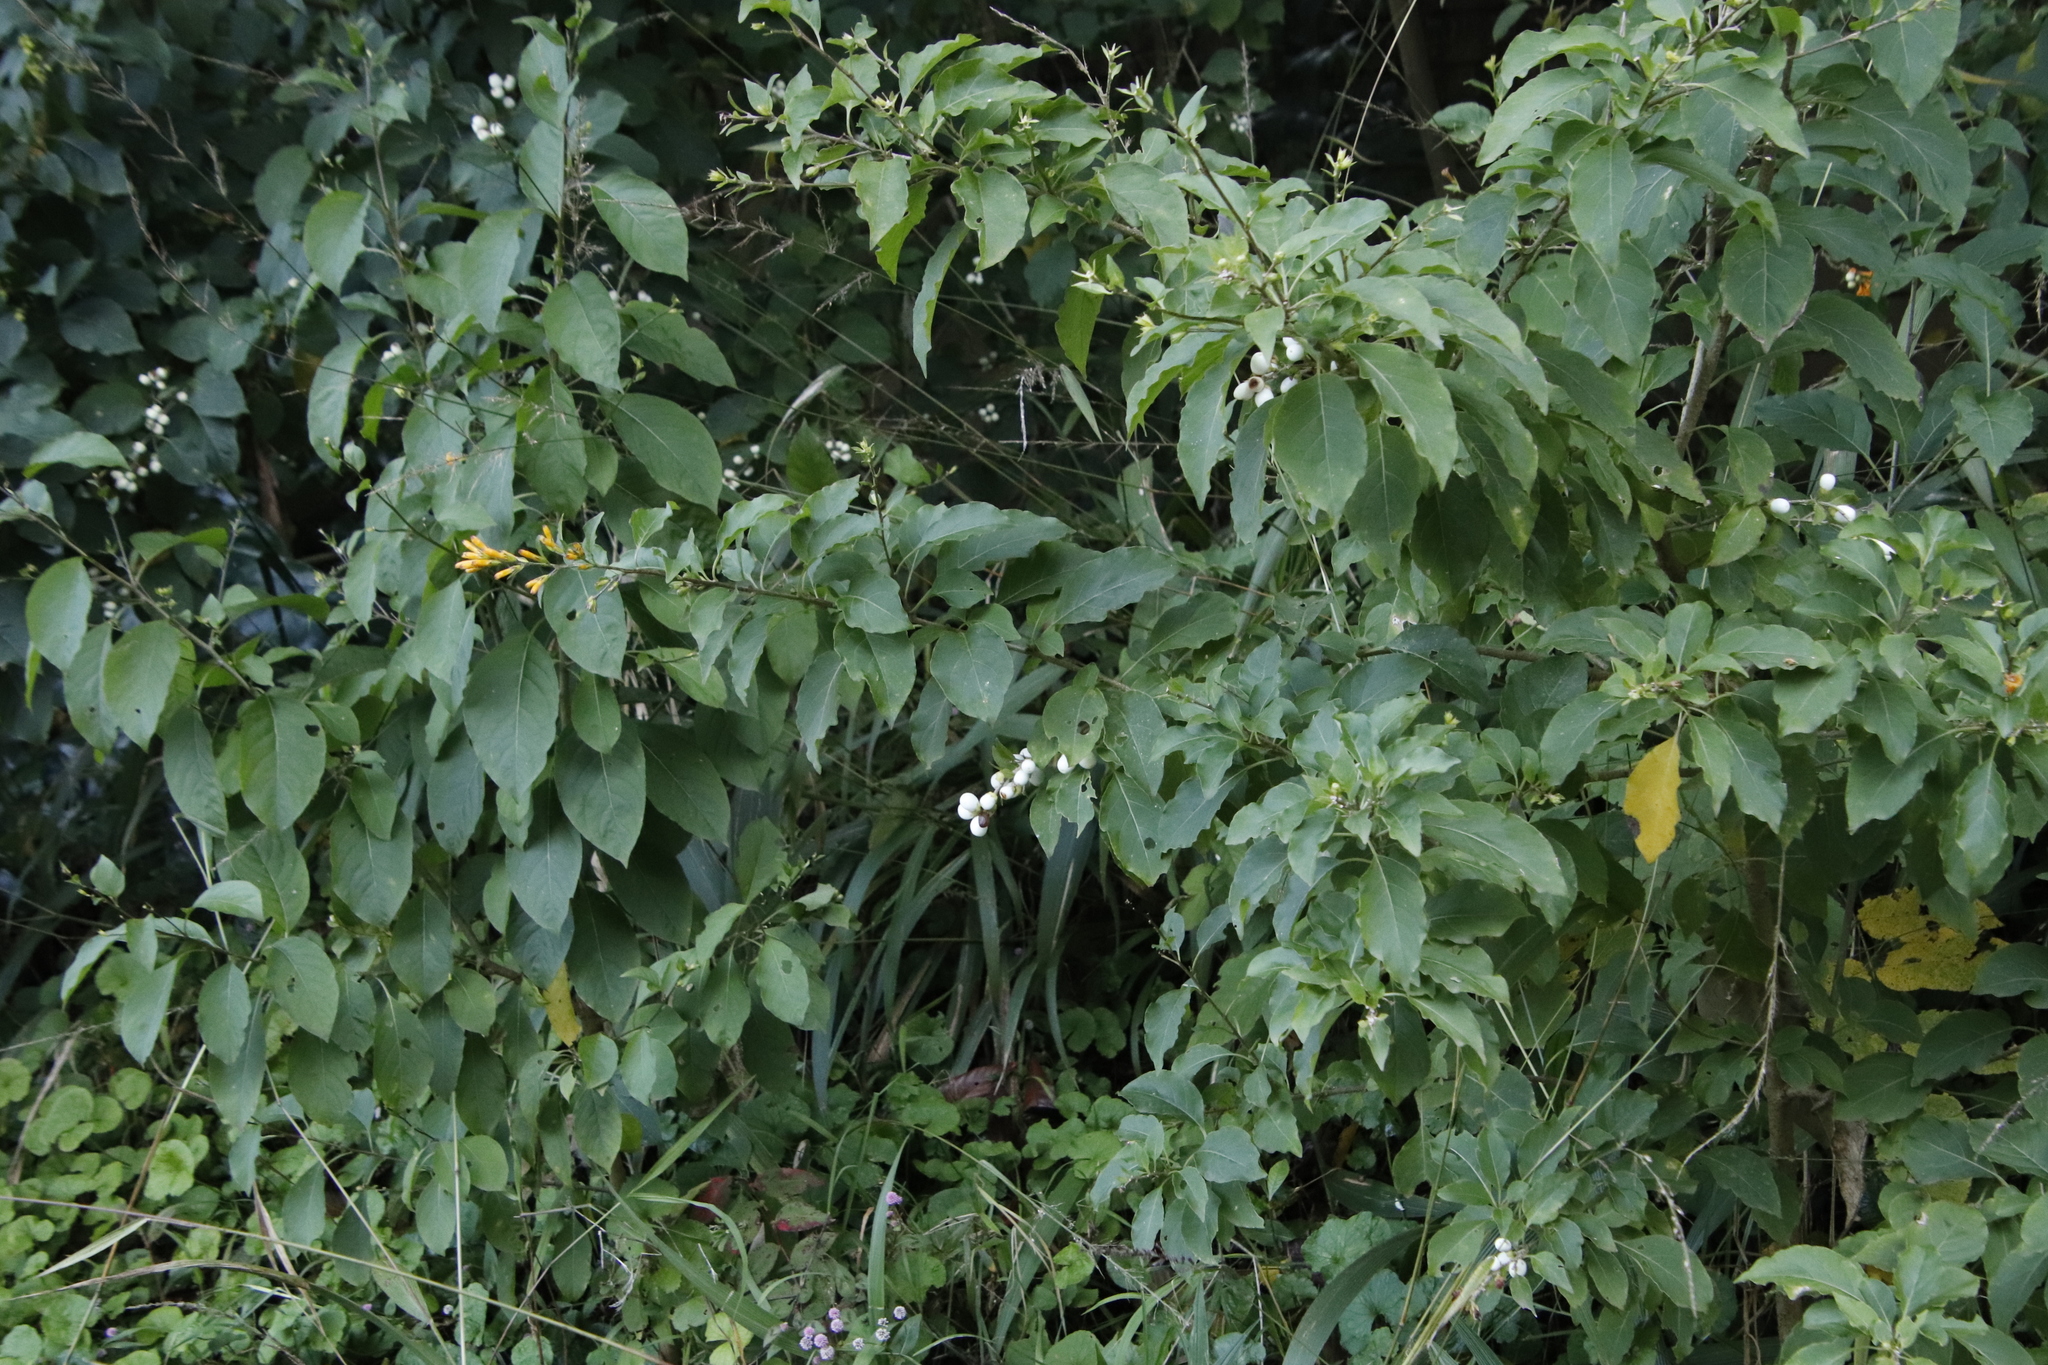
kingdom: Plantae
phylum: Tracheophyta
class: Magnoliopsida
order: Solanales
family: Solanaceae
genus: Cestrum
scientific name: Cestrum nocturnum
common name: Night jessamine
